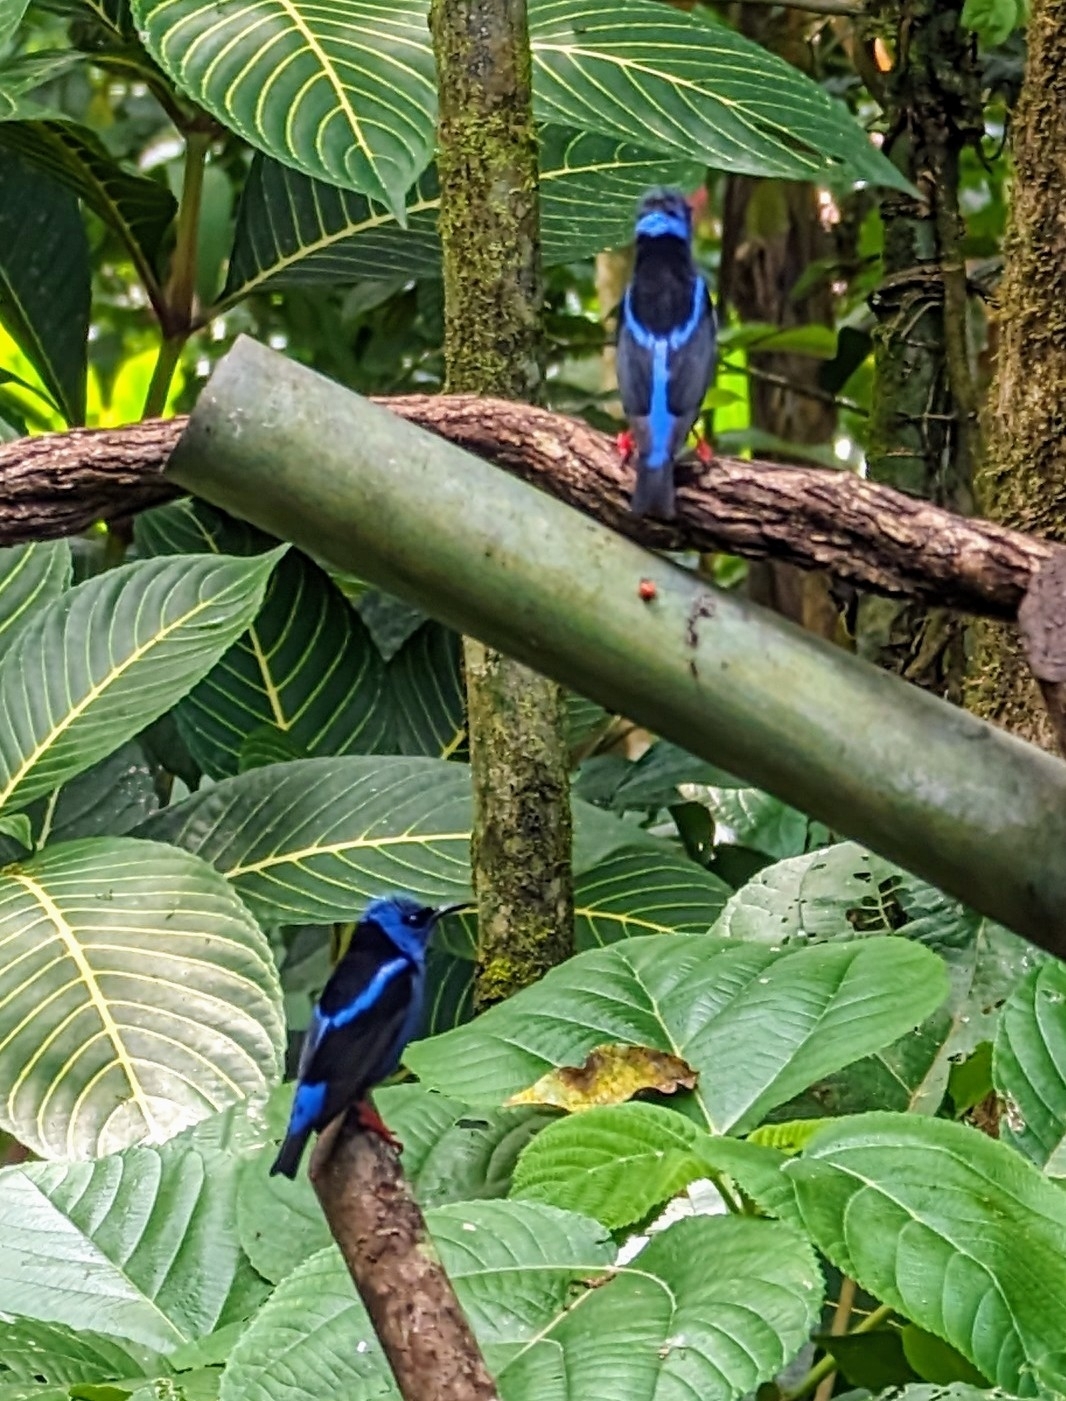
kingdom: Animalia
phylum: Chordata
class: Aves
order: Passeriformes
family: Thraupidae
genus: Cyanerpes
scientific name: Cyanerpes cyaneus
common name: Red-legged honeycreeper
